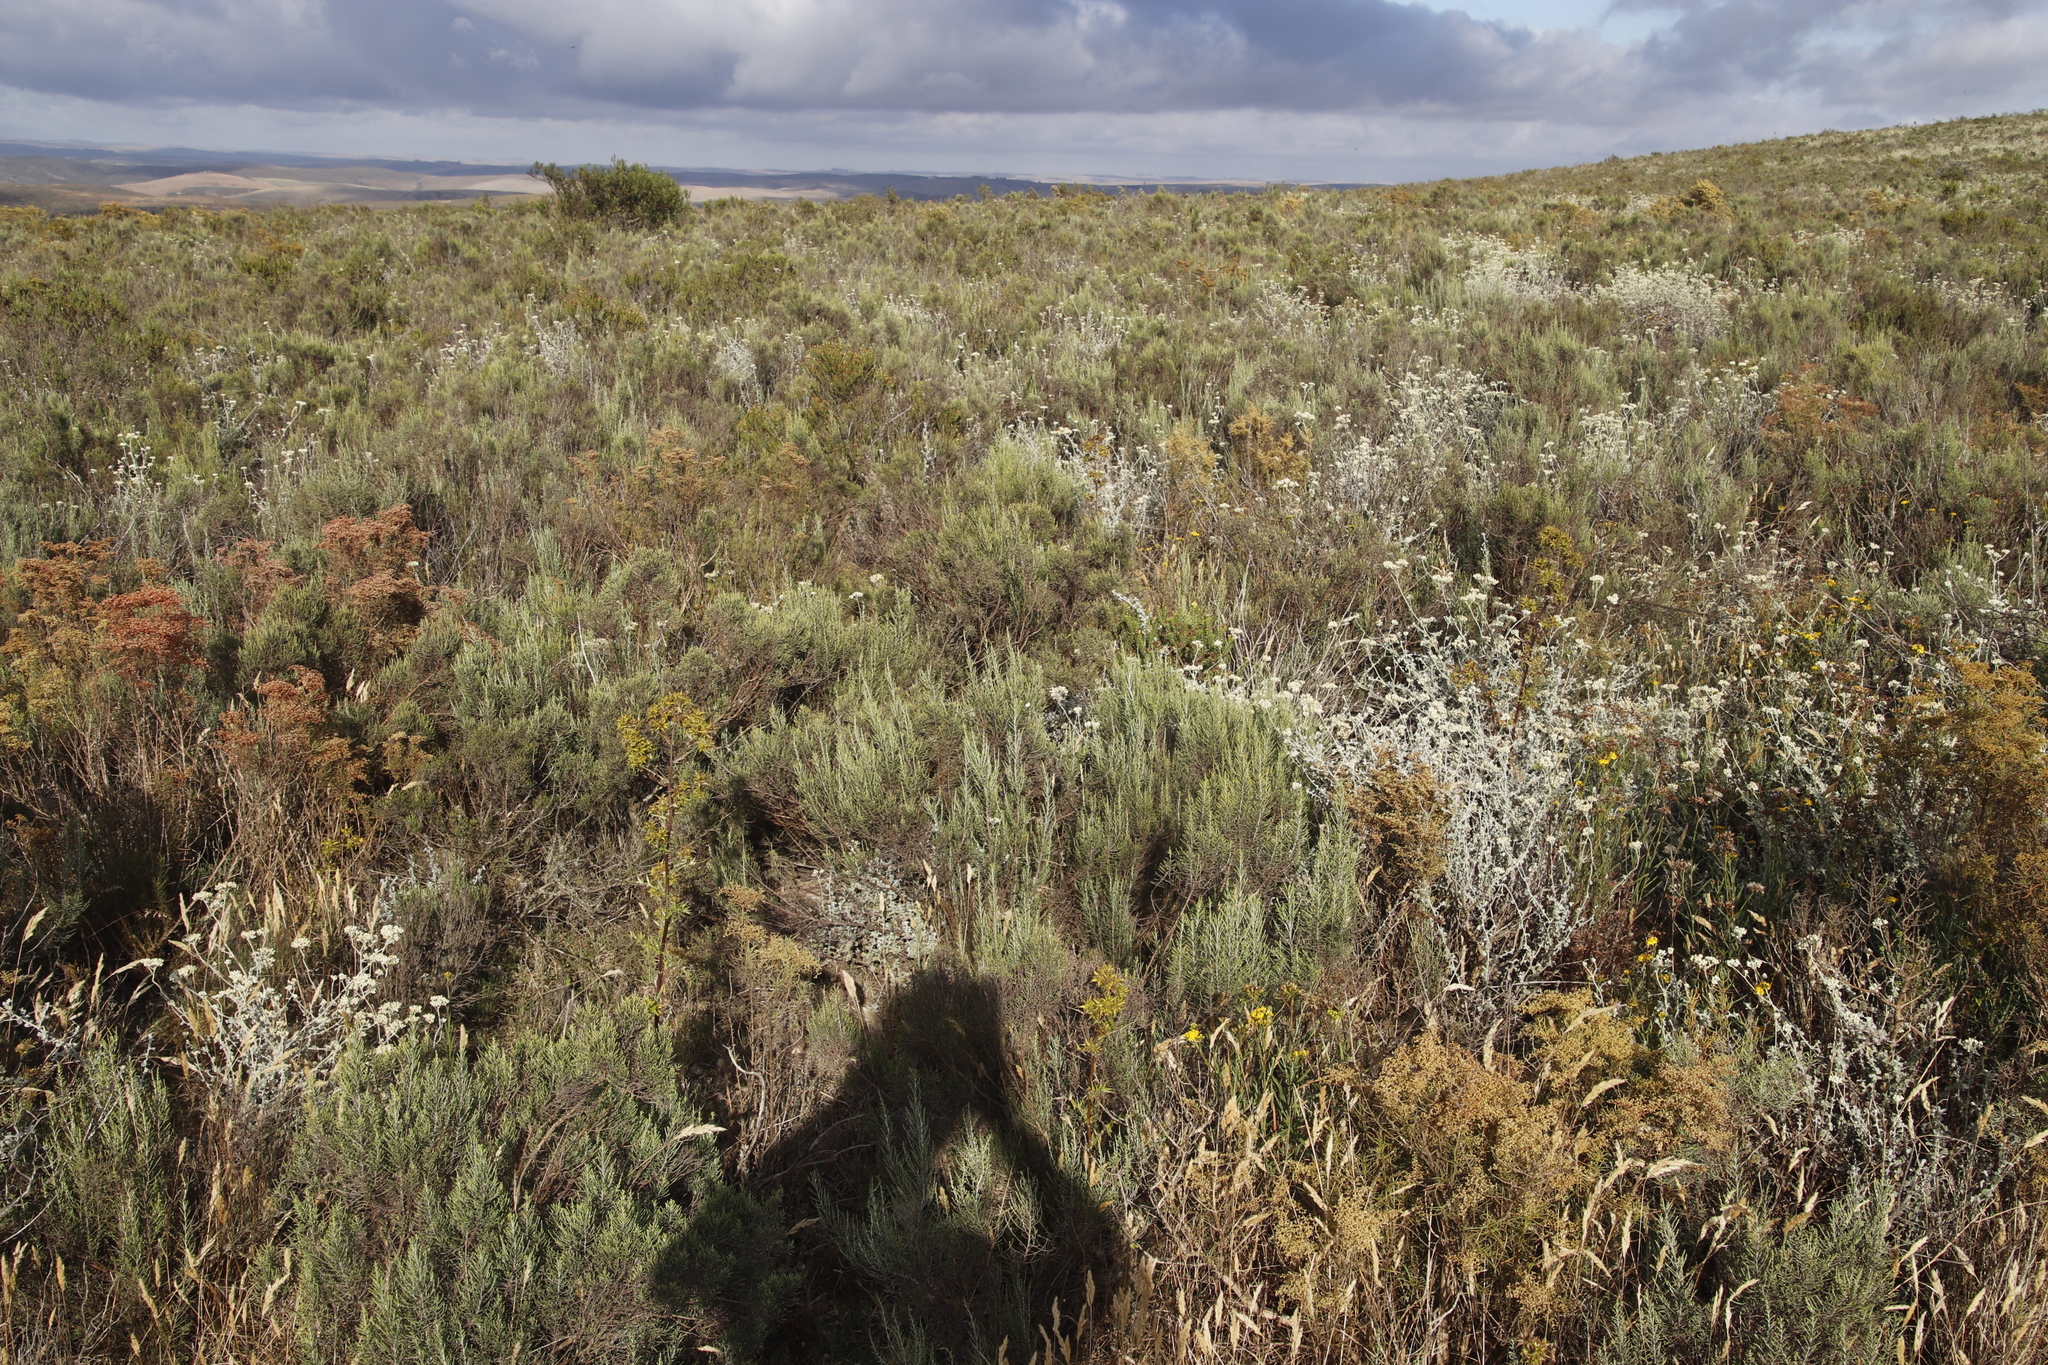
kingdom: Plantae
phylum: Tracheophyta
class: Magnoliopsida
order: Asterales
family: Asteraceae
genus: Dicerothamnus
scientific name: Dicerothamnus rhinocerotis
